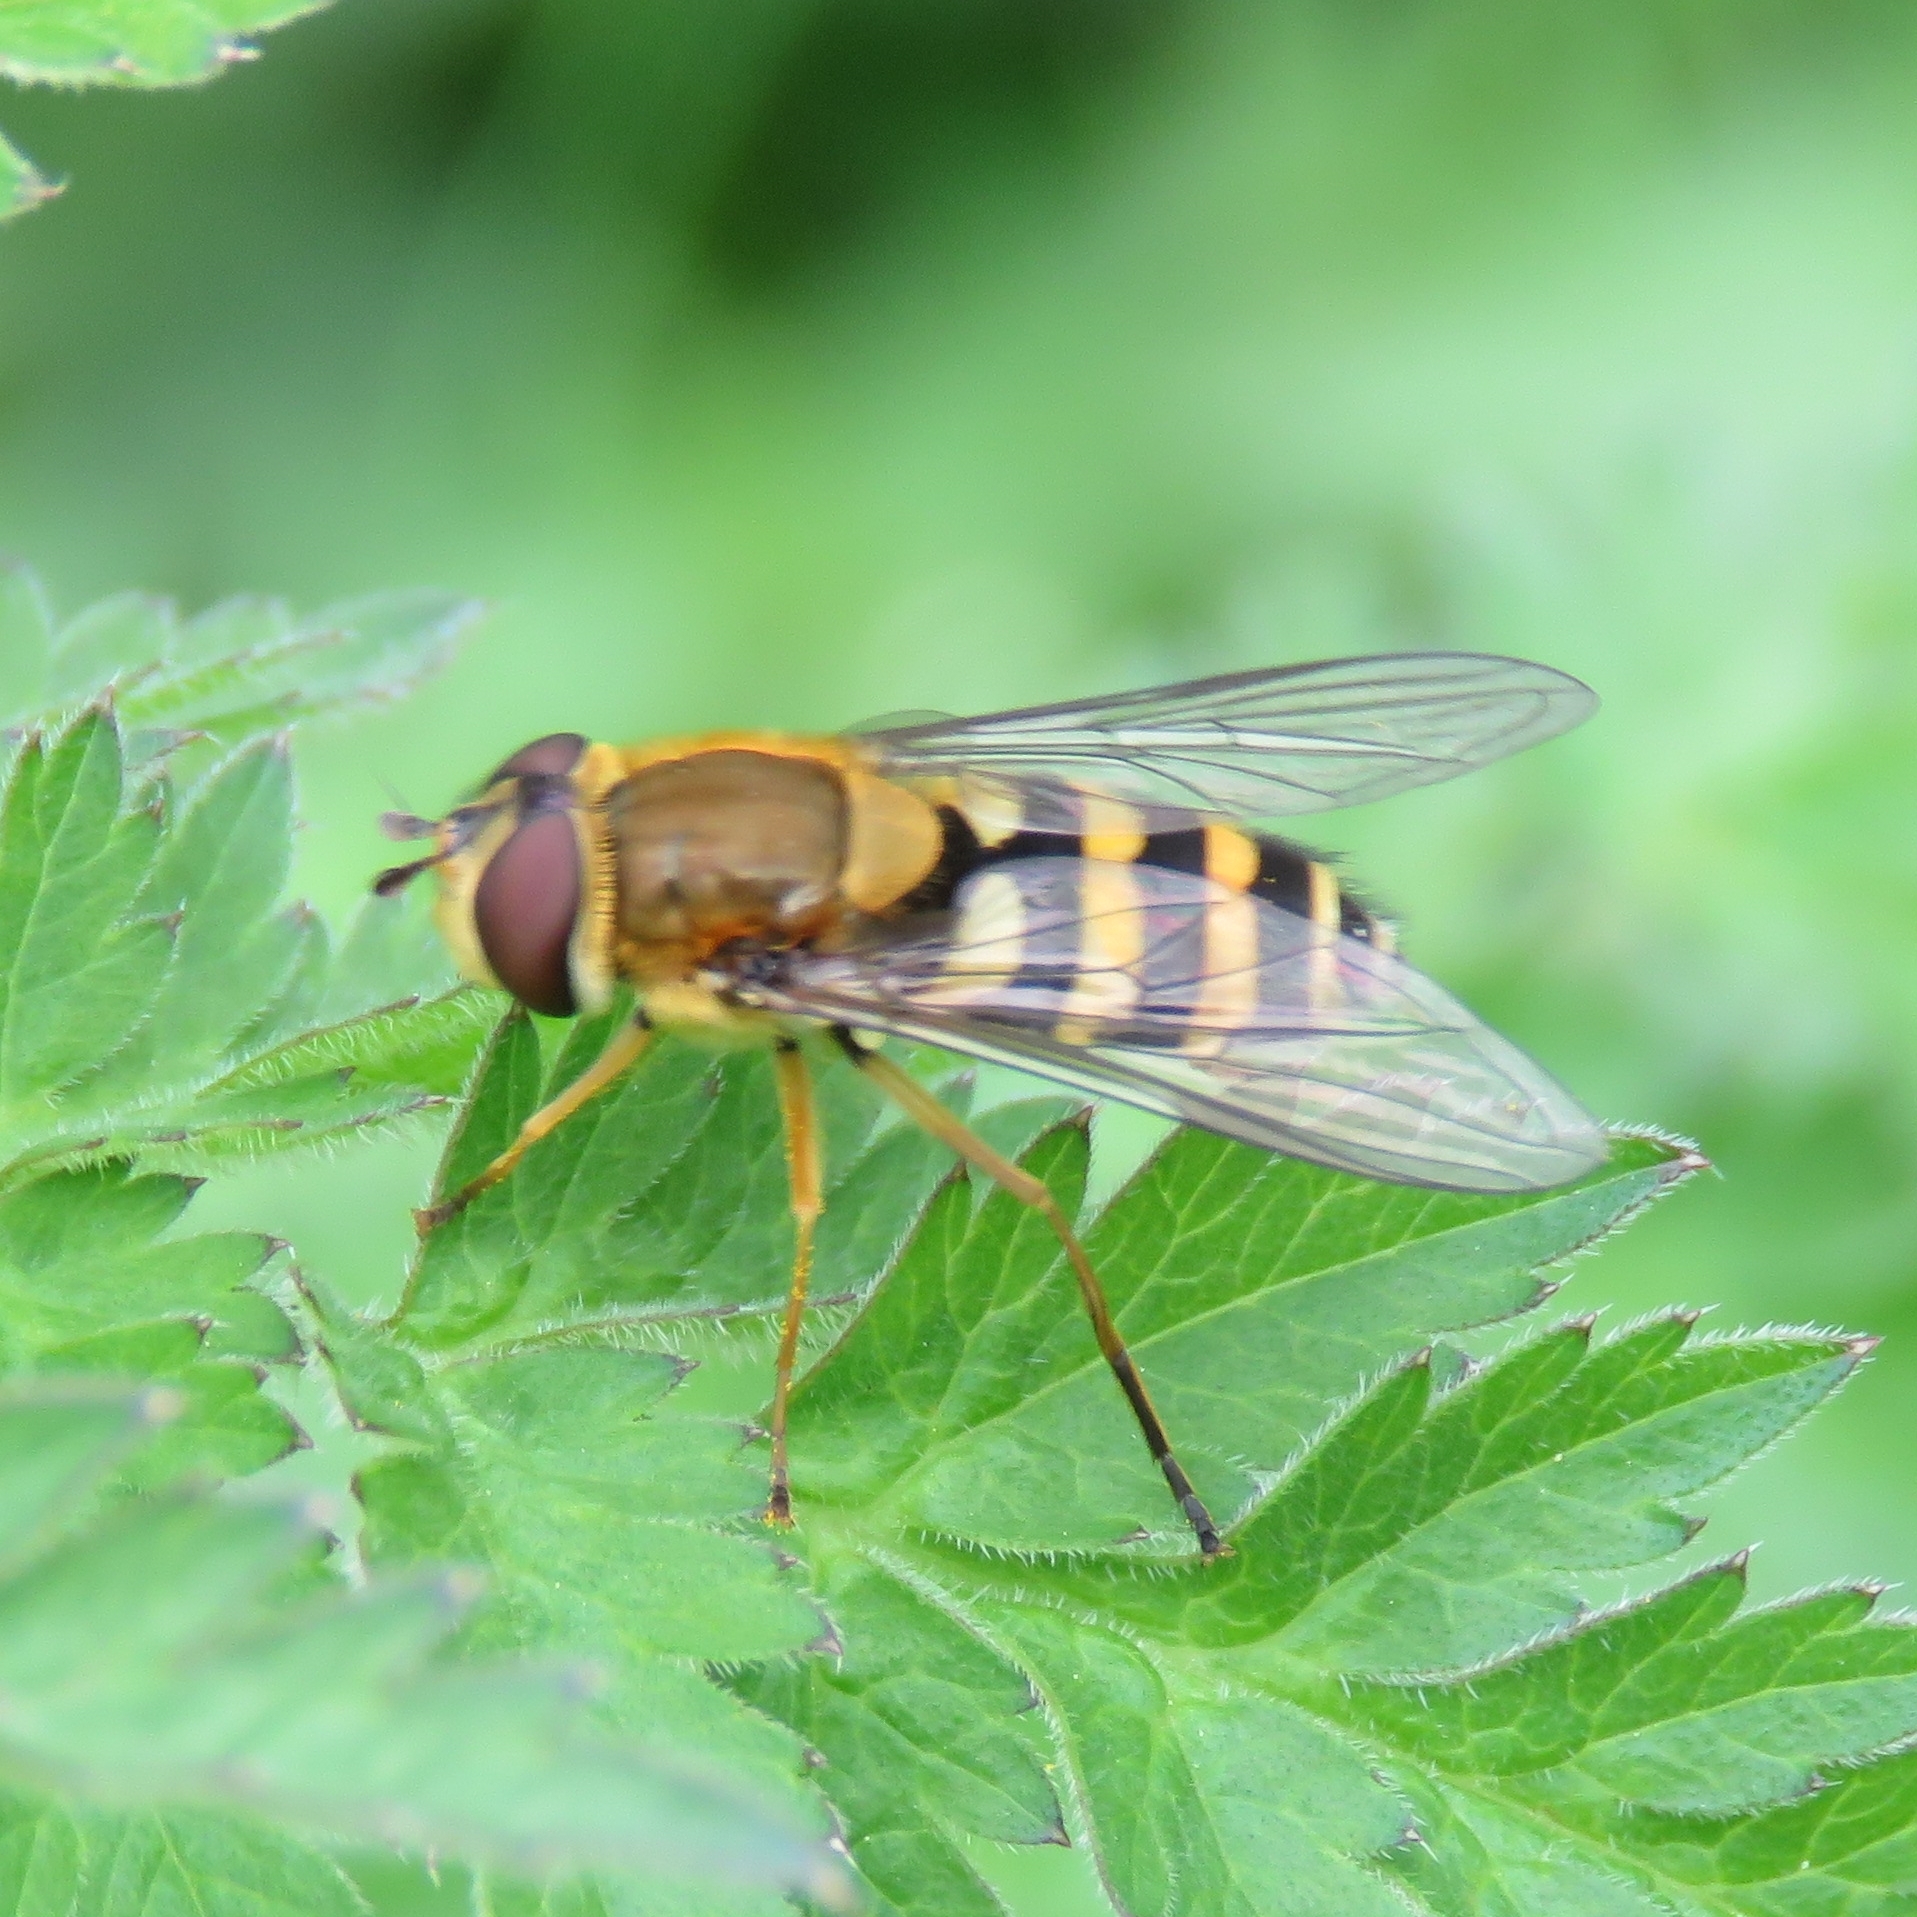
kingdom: Animalia
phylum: Arthropoda
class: Insecta
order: Diptera
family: Syrphidae
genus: Syrphus
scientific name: Syrphus ribesii
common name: Common flower fly
